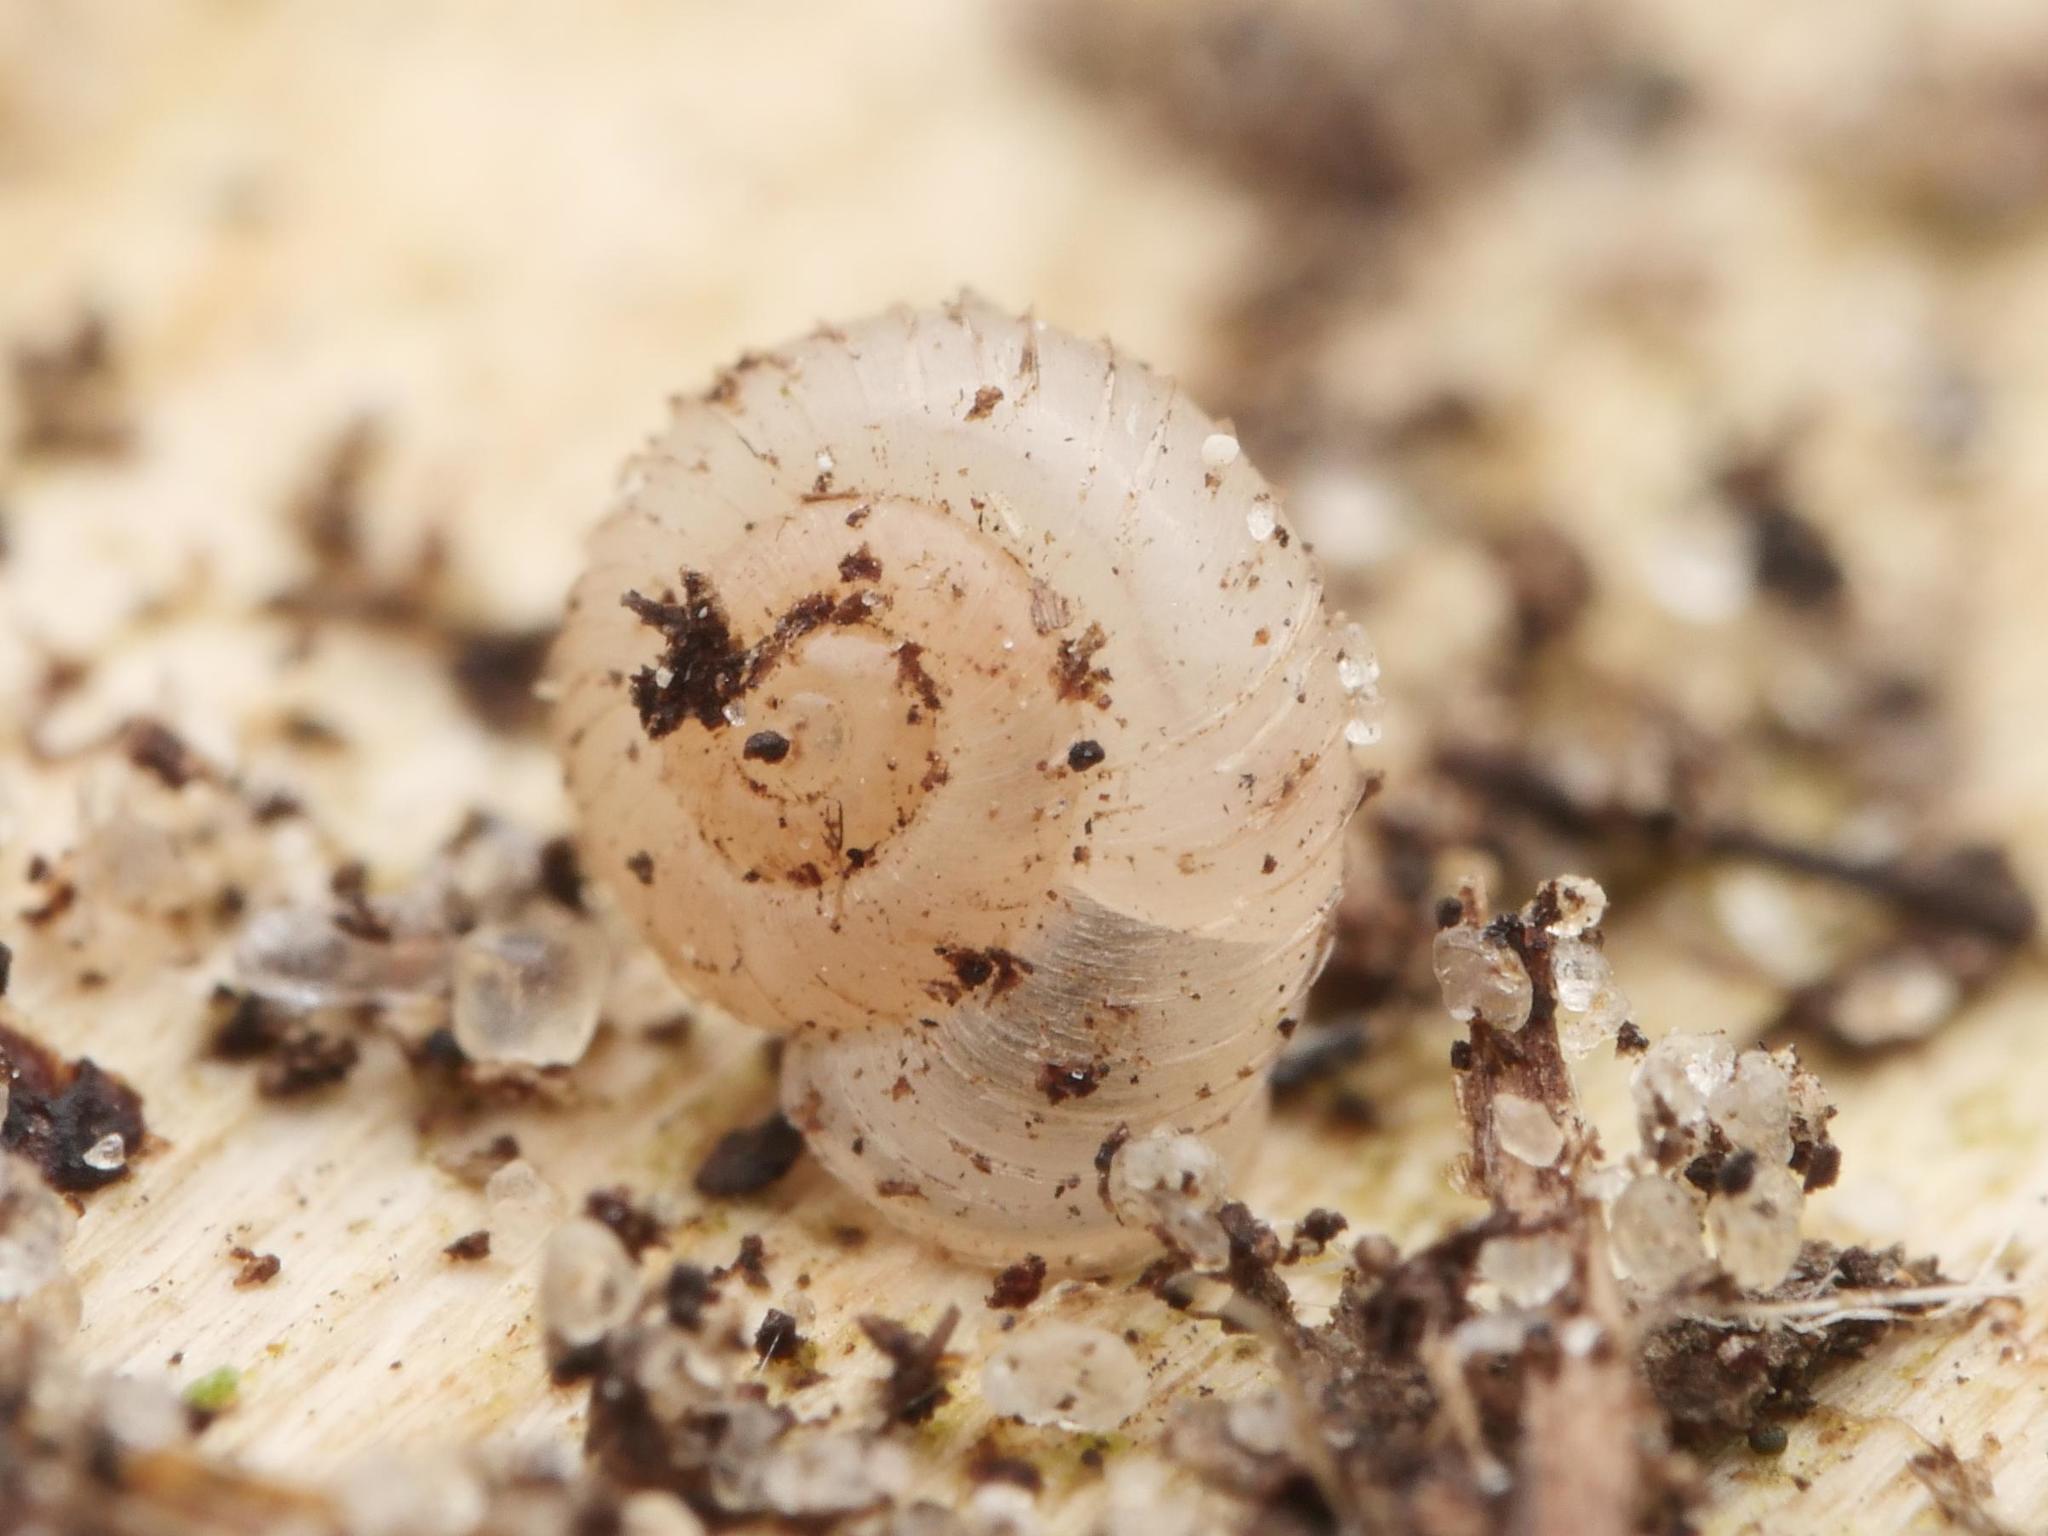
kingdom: Animalia
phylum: Mollusca
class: Gastropoda
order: Stylommatophora
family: Valloniidae
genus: Vallonia
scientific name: Vallonia costata
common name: Ribbed grass snail
